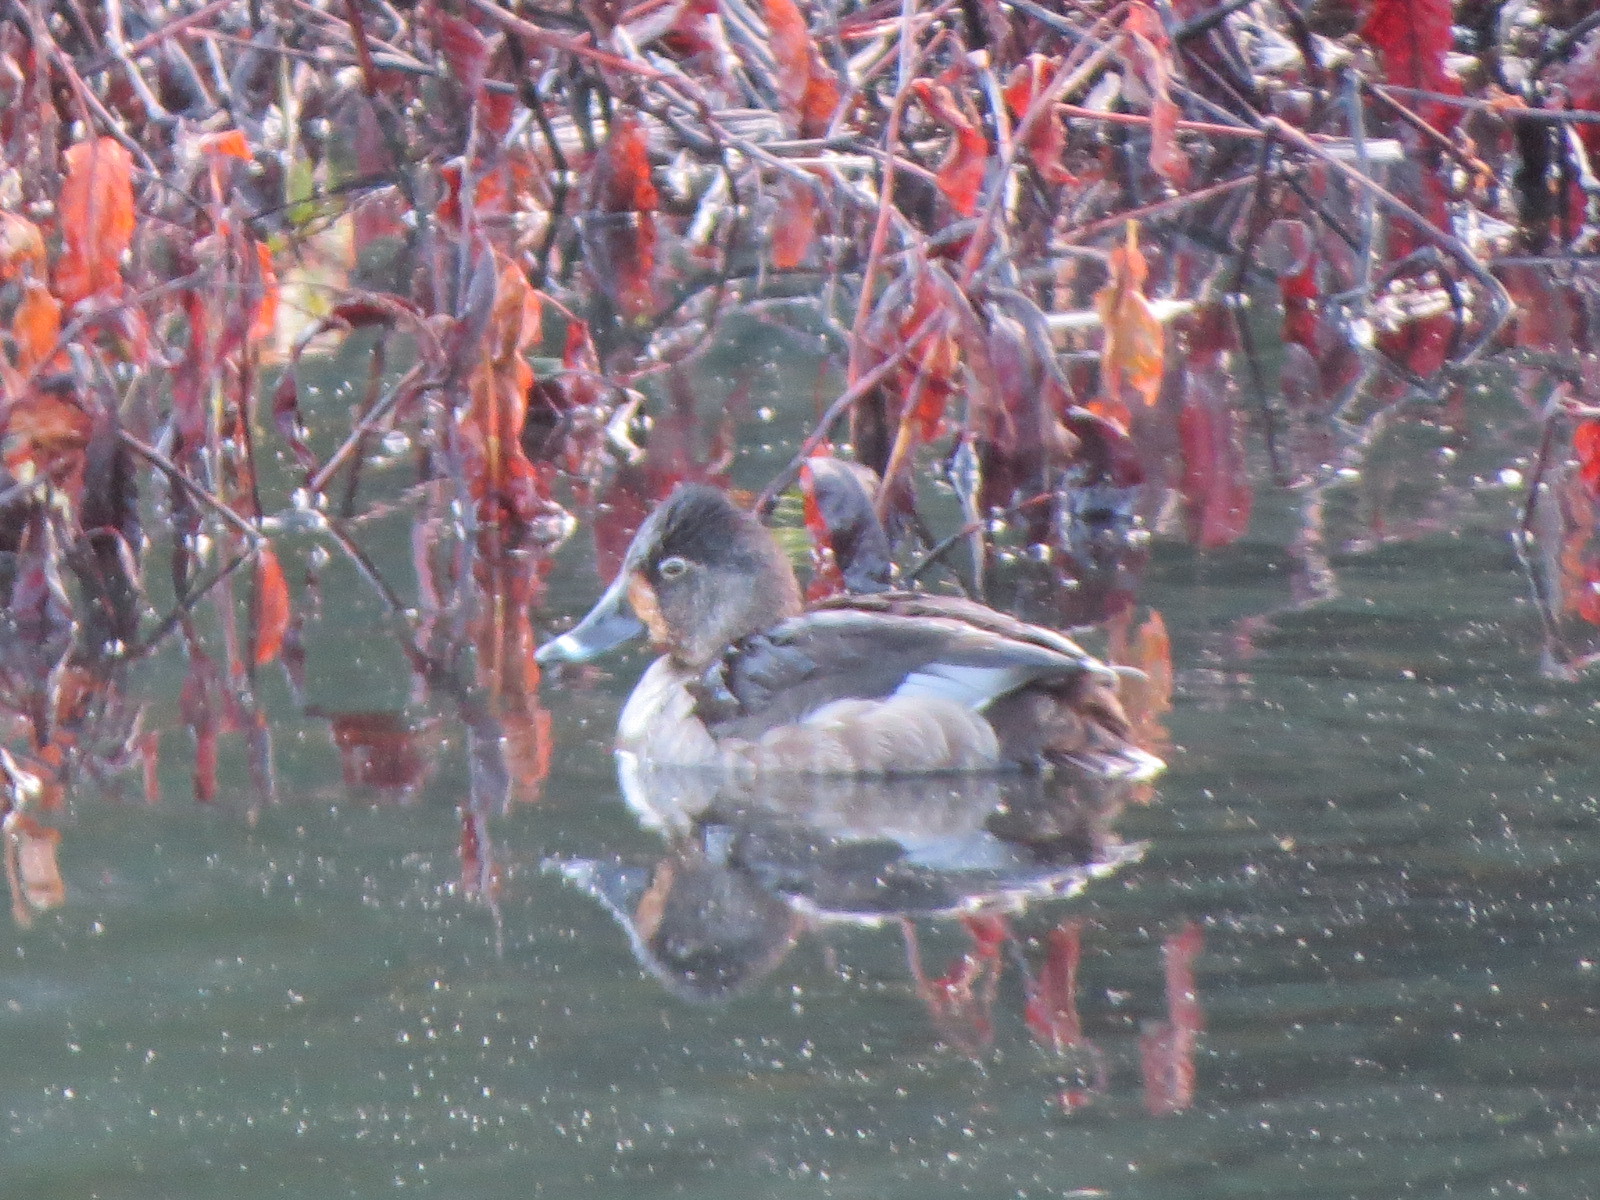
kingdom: Animalia
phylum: Chordata
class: Aves
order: Anseriformes
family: Anatidae
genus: Aythya
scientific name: Aythya collaris
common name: Ring-necked duck
